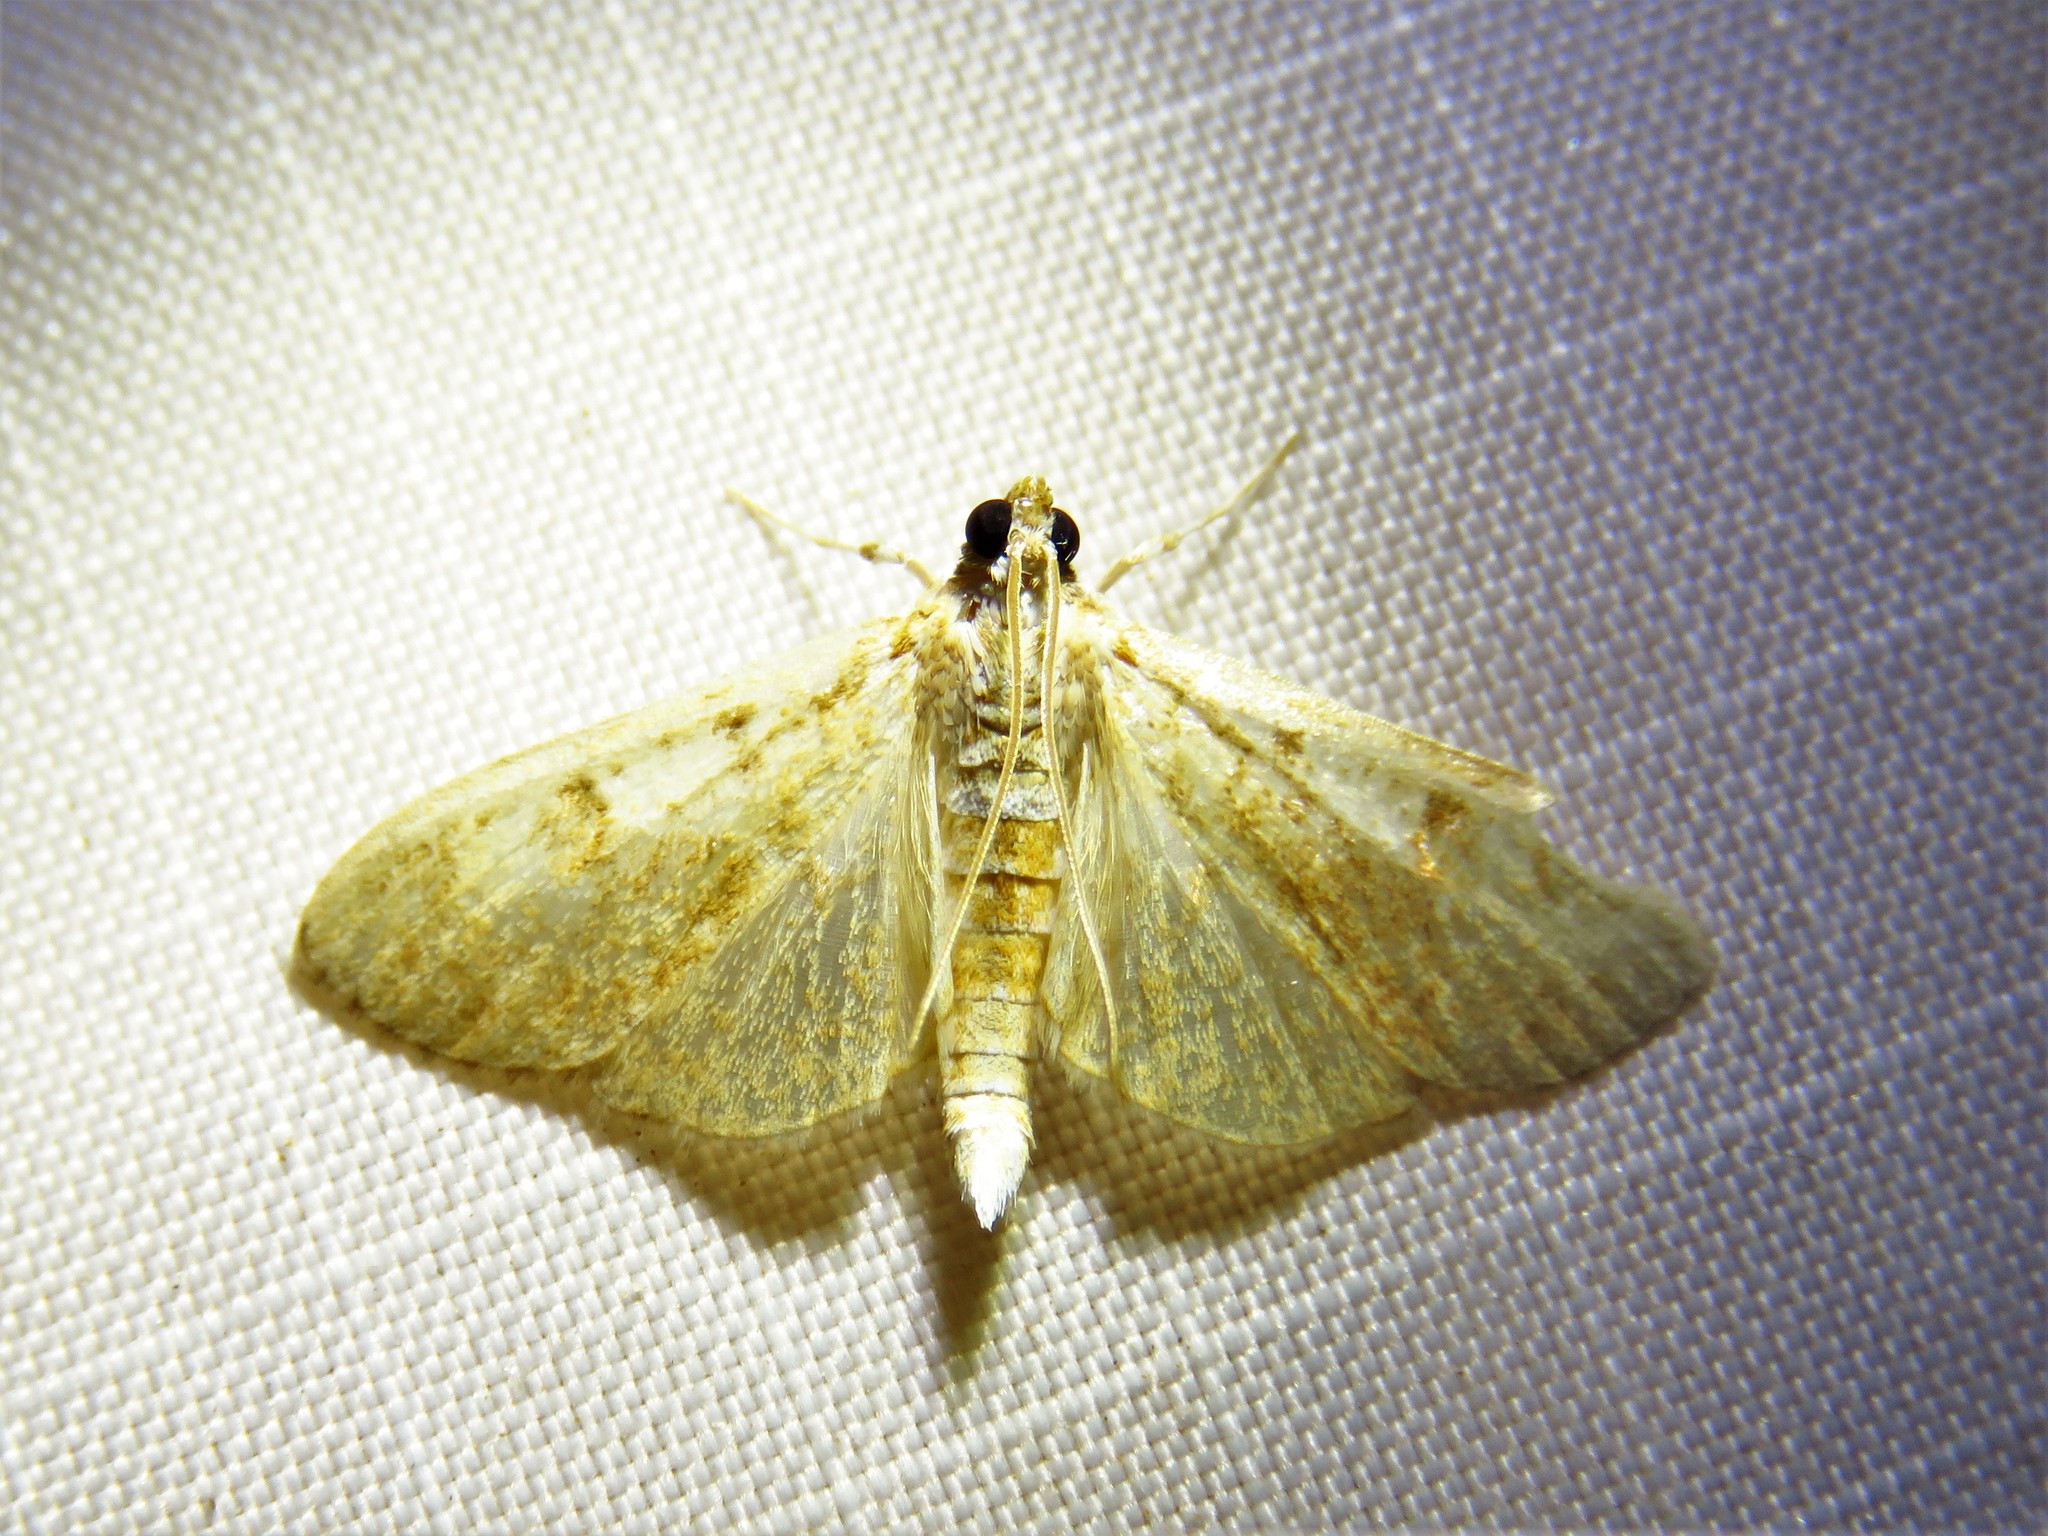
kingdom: Animalia
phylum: Arthropoda
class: Insecta
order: Lepidoptera
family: Crambidae
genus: Palpita
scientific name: Palpita freemanalis
